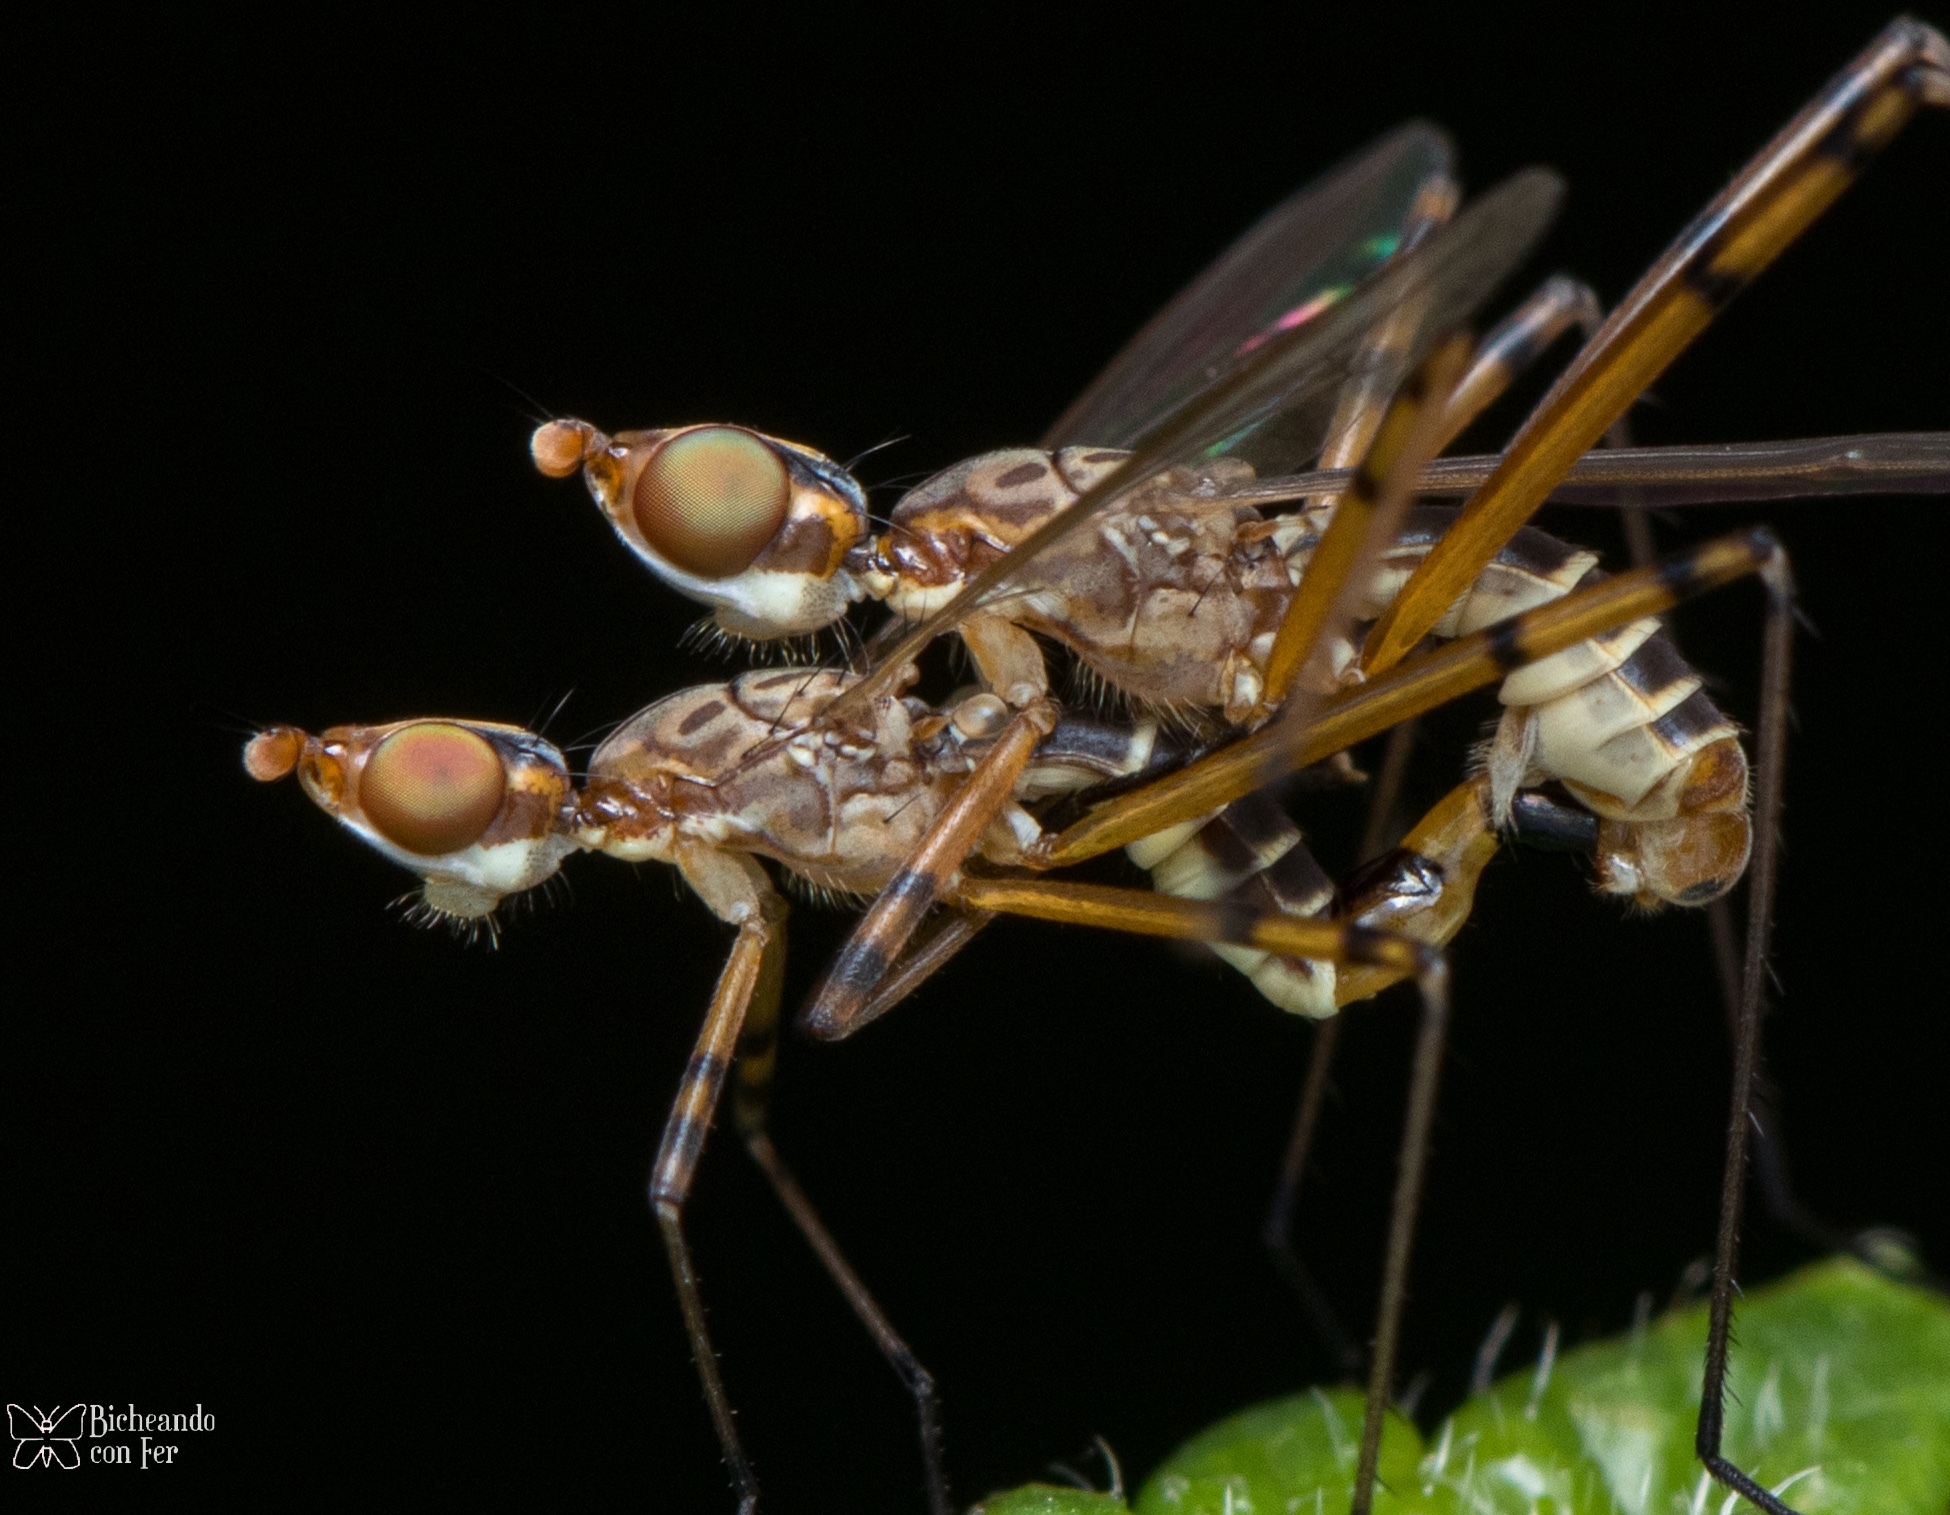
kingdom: Animalia
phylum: Arthropoda
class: Insecta
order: Diptera
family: Micropezidae
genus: Micropeza
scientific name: Micropeza stigmatica
